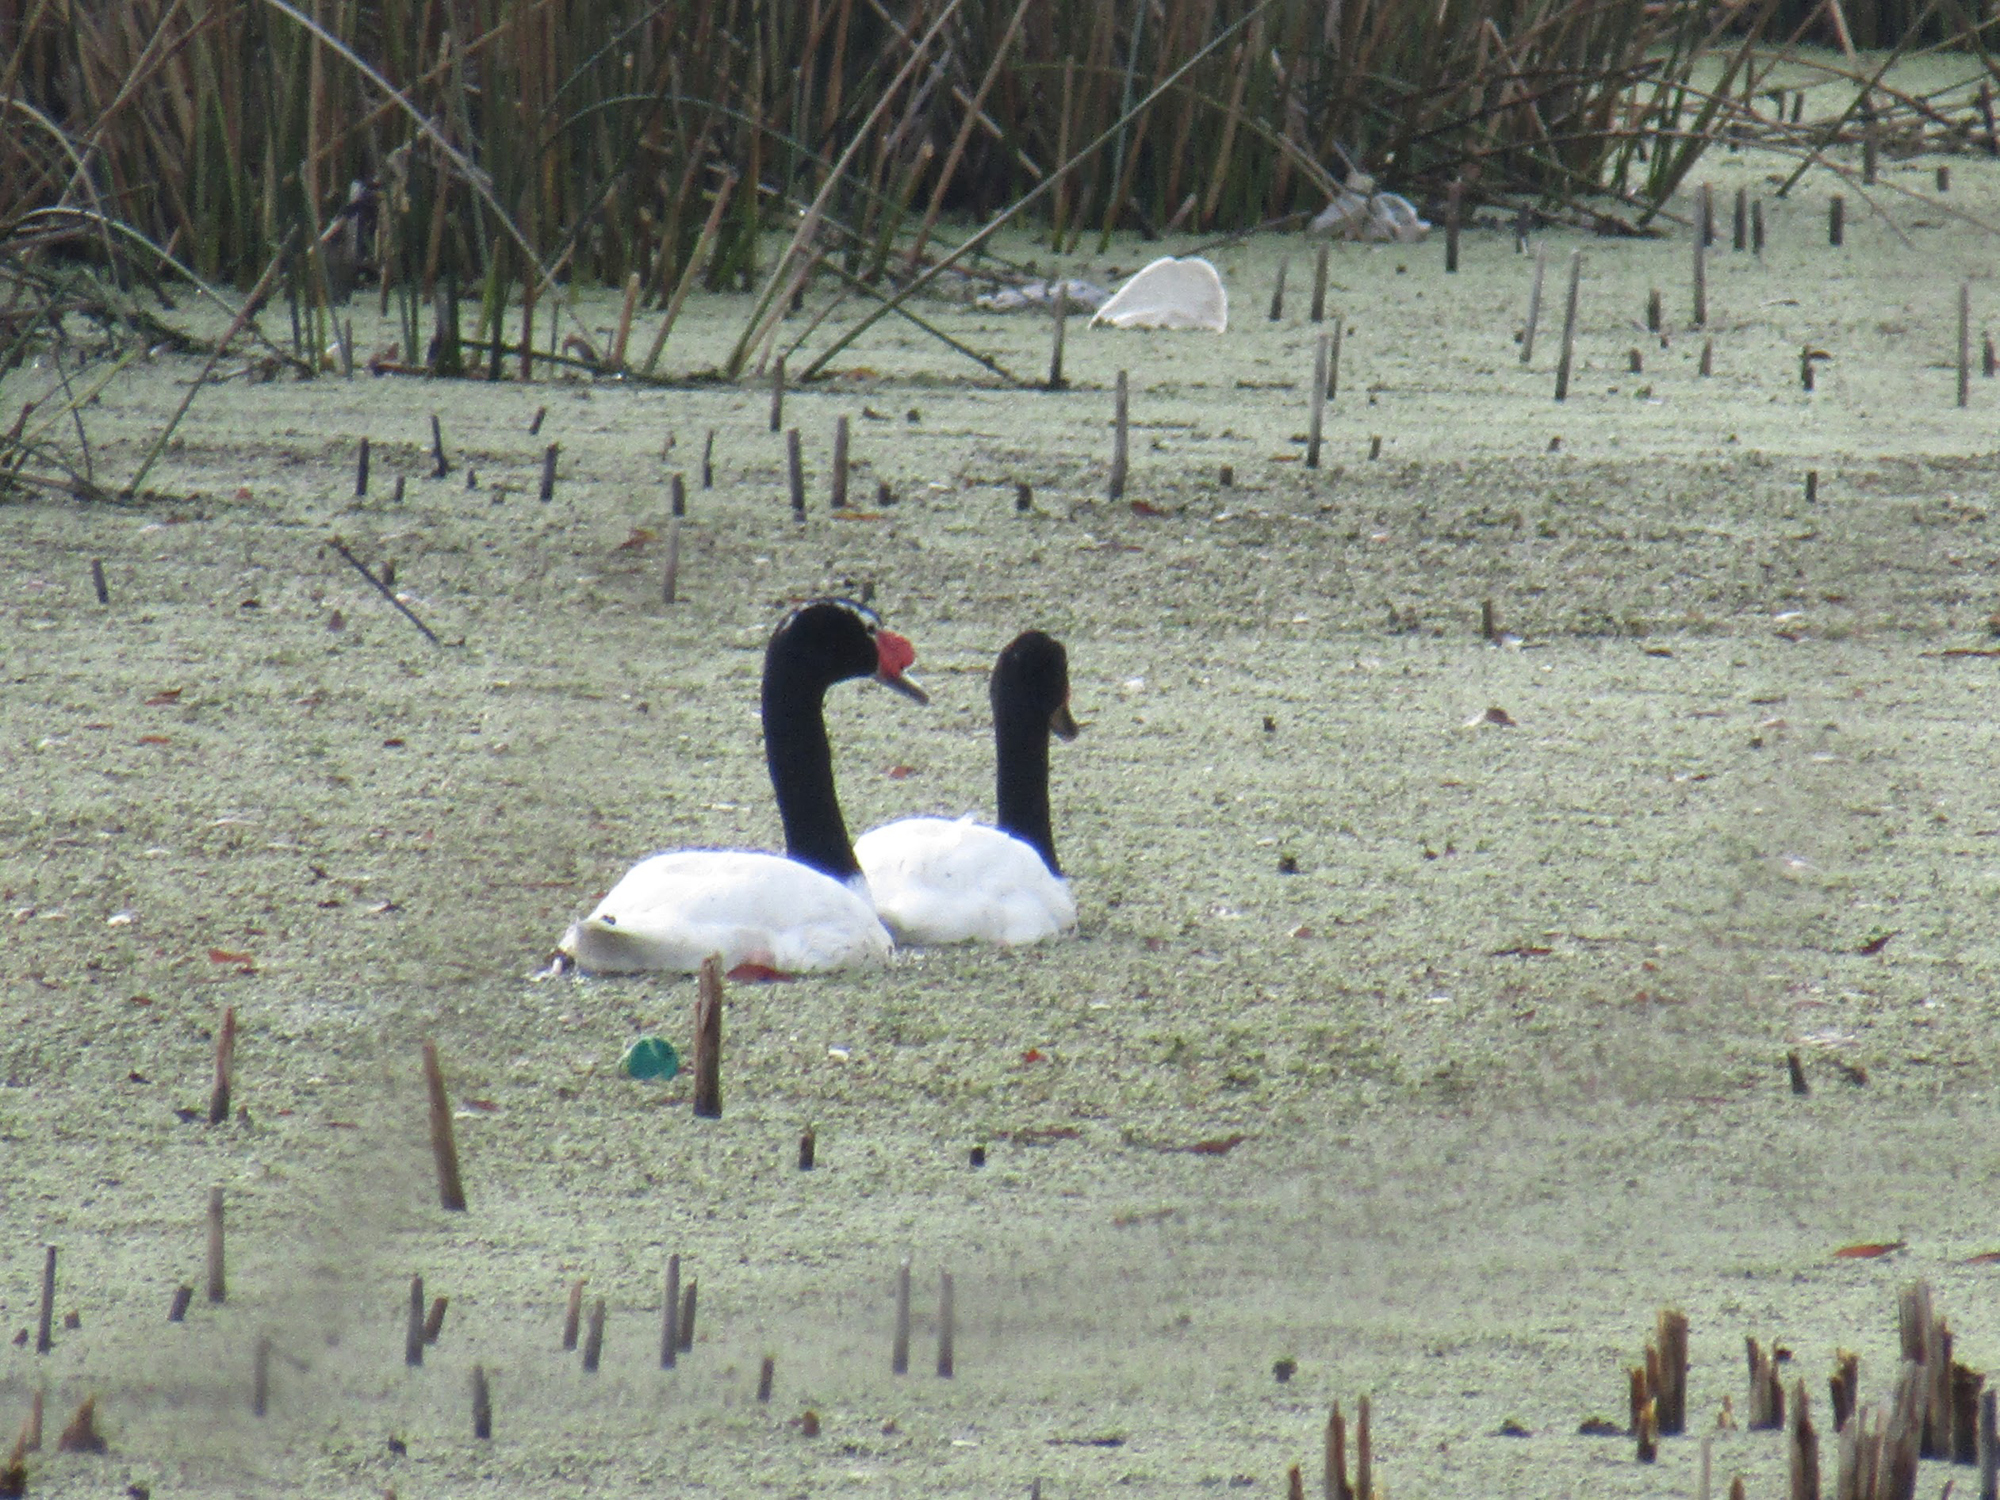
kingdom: Animalia
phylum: Chordata
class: Aves
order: Anseriformes
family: Anatidae
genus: Cygnus
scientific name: Cygnus melancoryphus
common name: Black-necked swan
